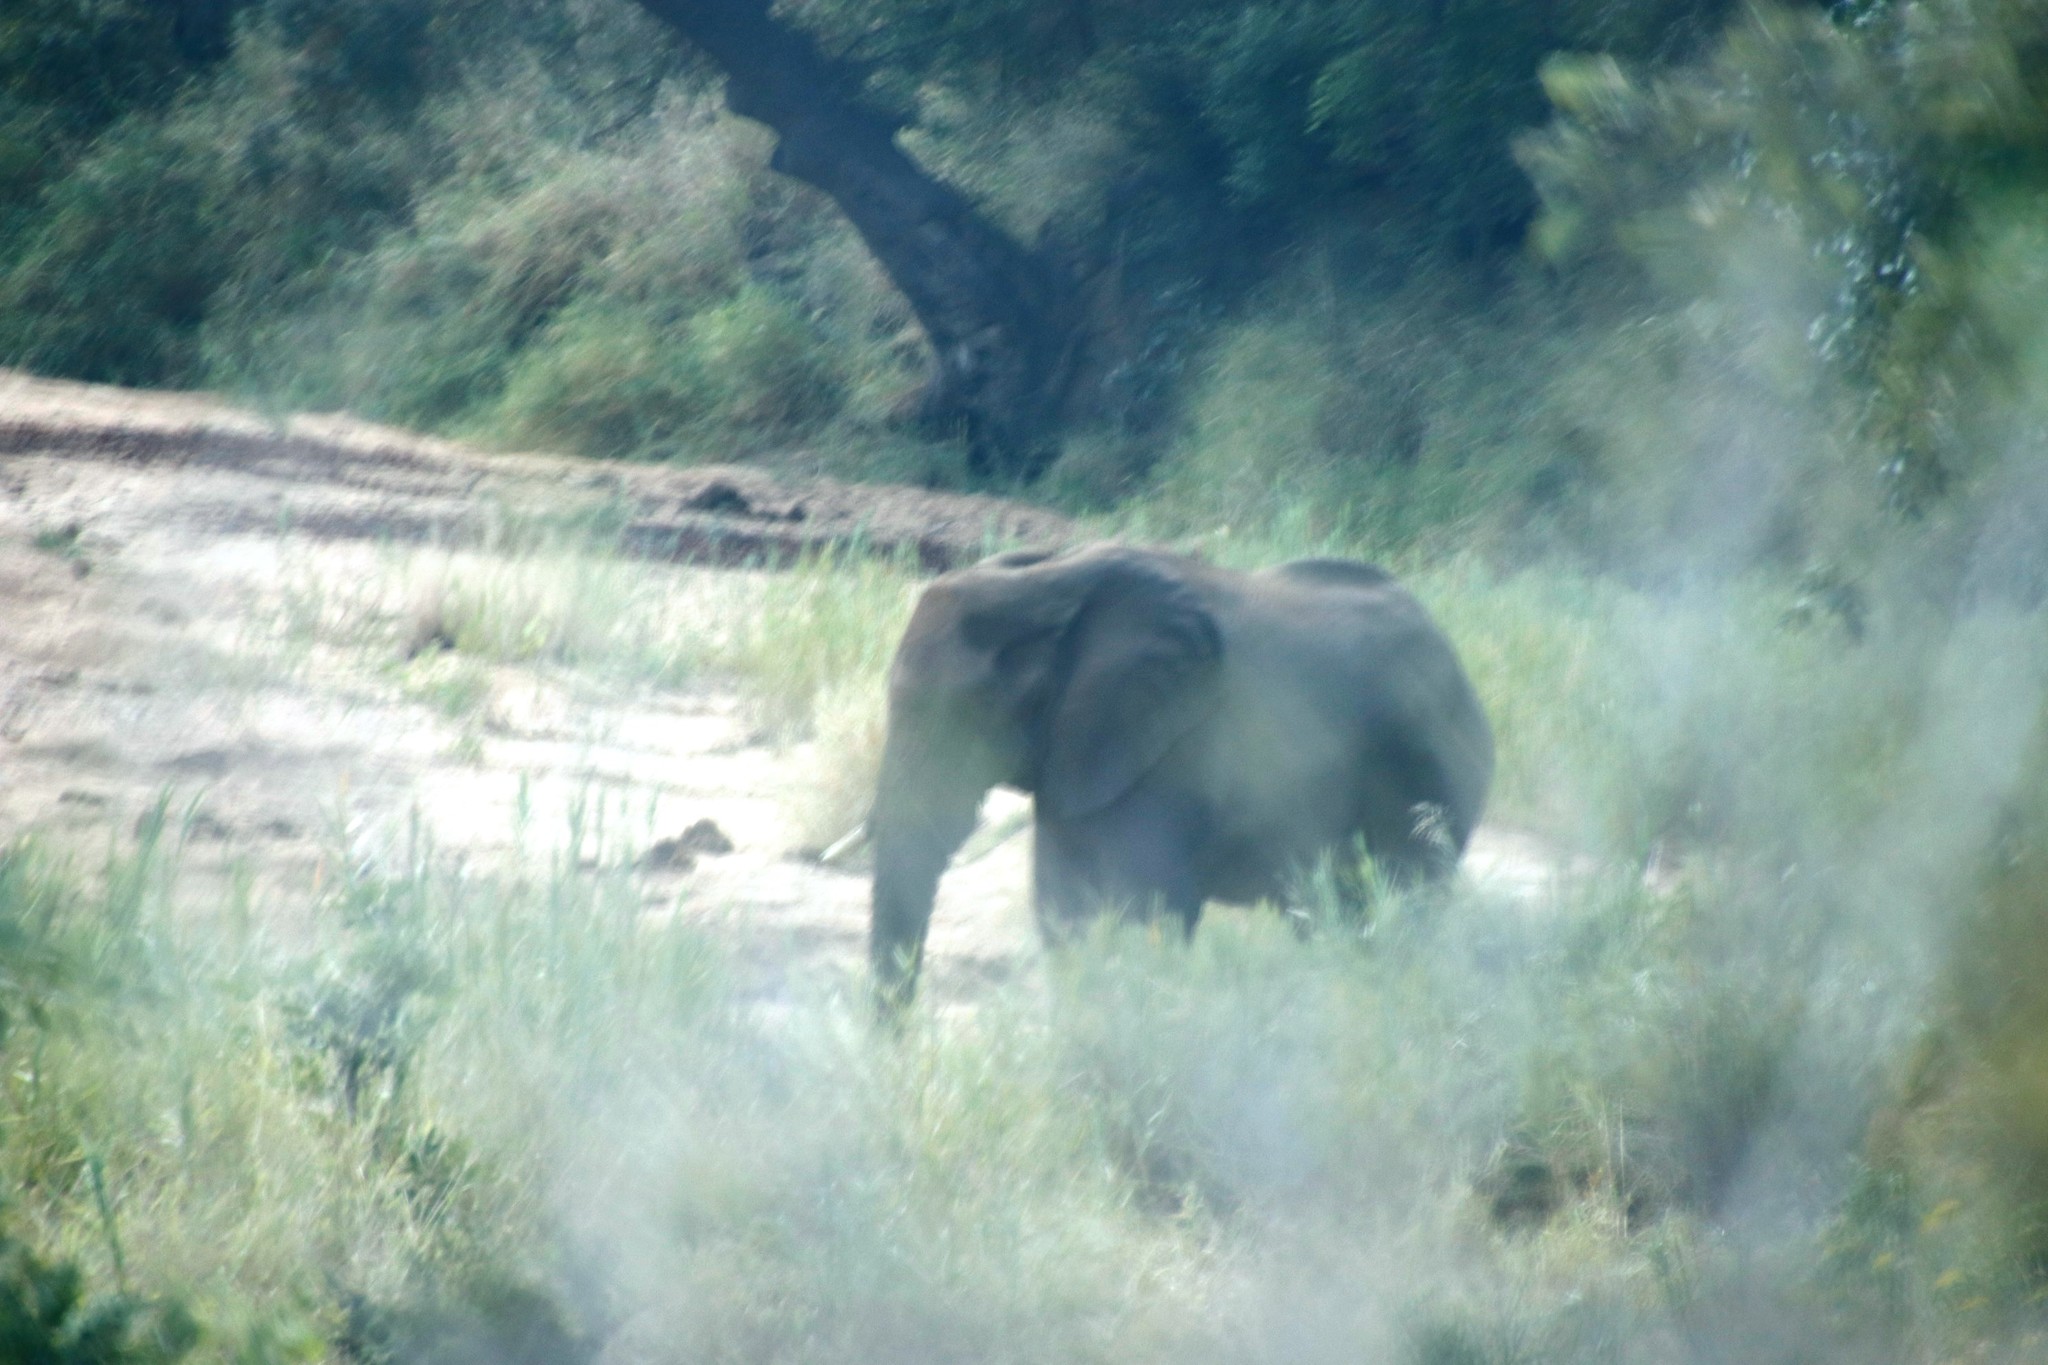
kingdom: Animalia
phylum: Chordata
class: Mammalia
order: Proboscidea
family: Elephantidae
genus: Loxodonta
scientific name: Loxodonta africana
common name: African elephant
